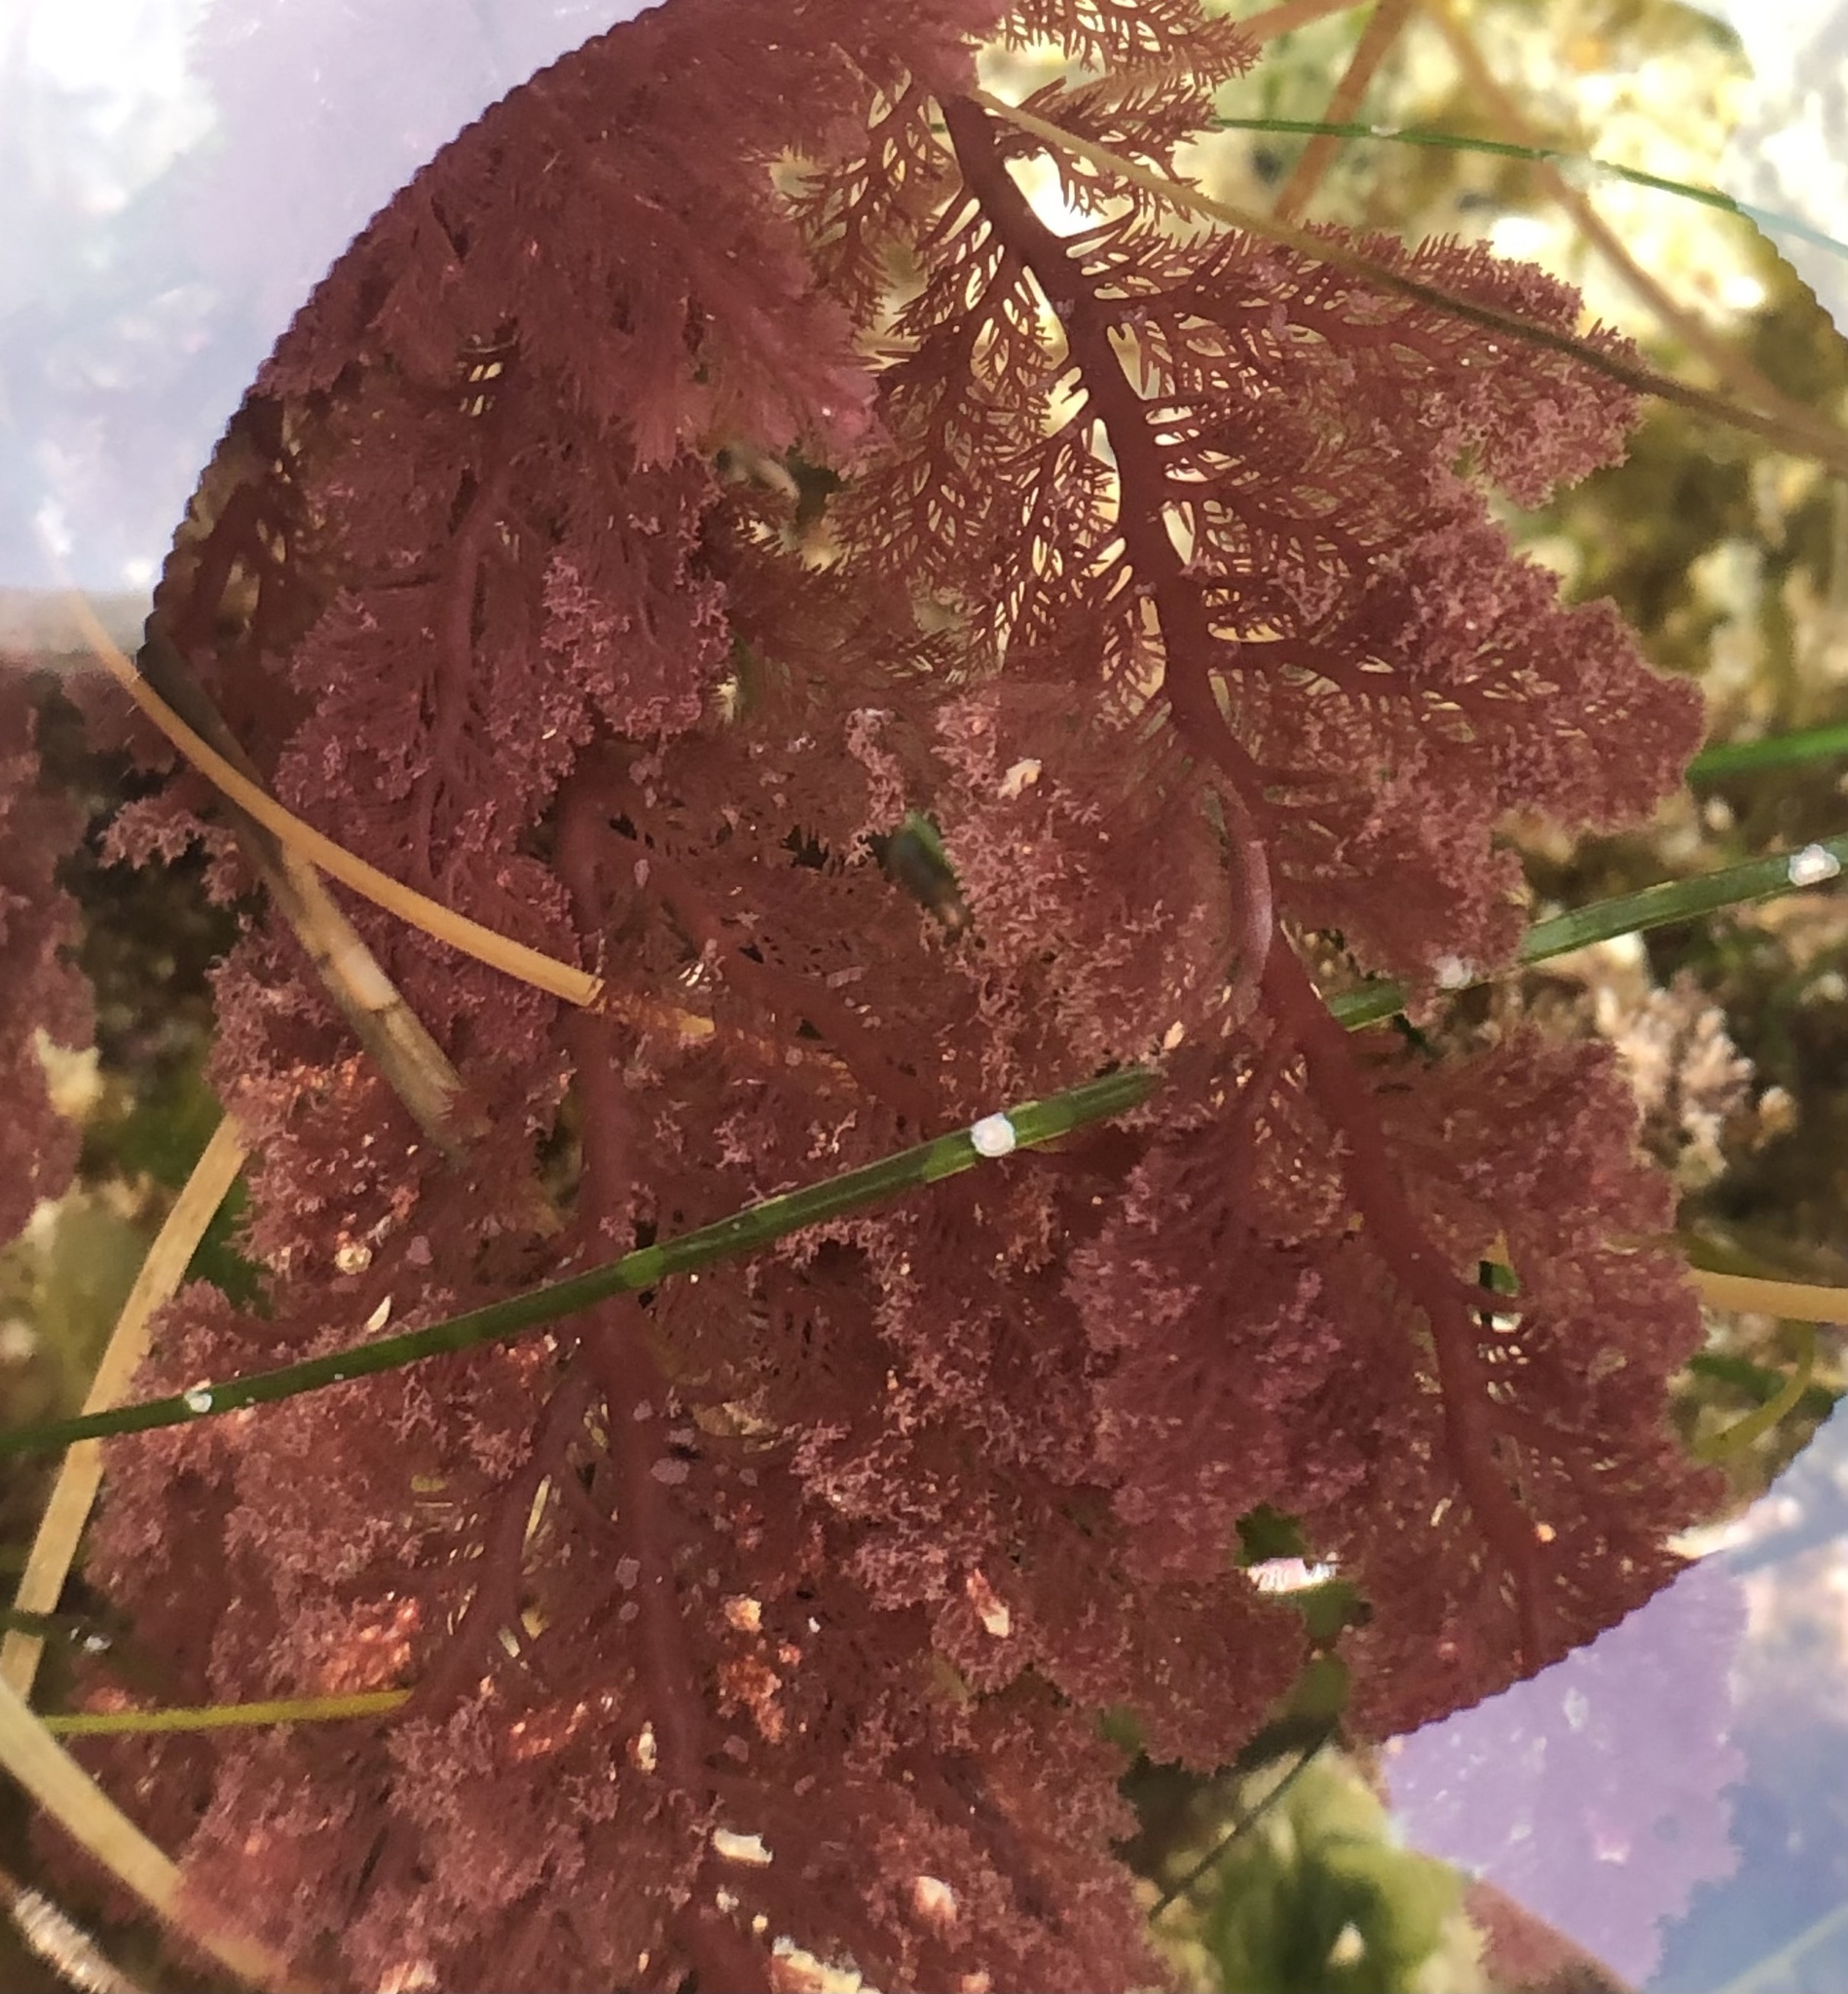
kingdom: Plantae
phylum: Rhodophyta
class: Florideophyceae
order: Plocamiales
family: Plocamiaceae
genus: Plocamium
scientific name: Plocamium cartilagineum
